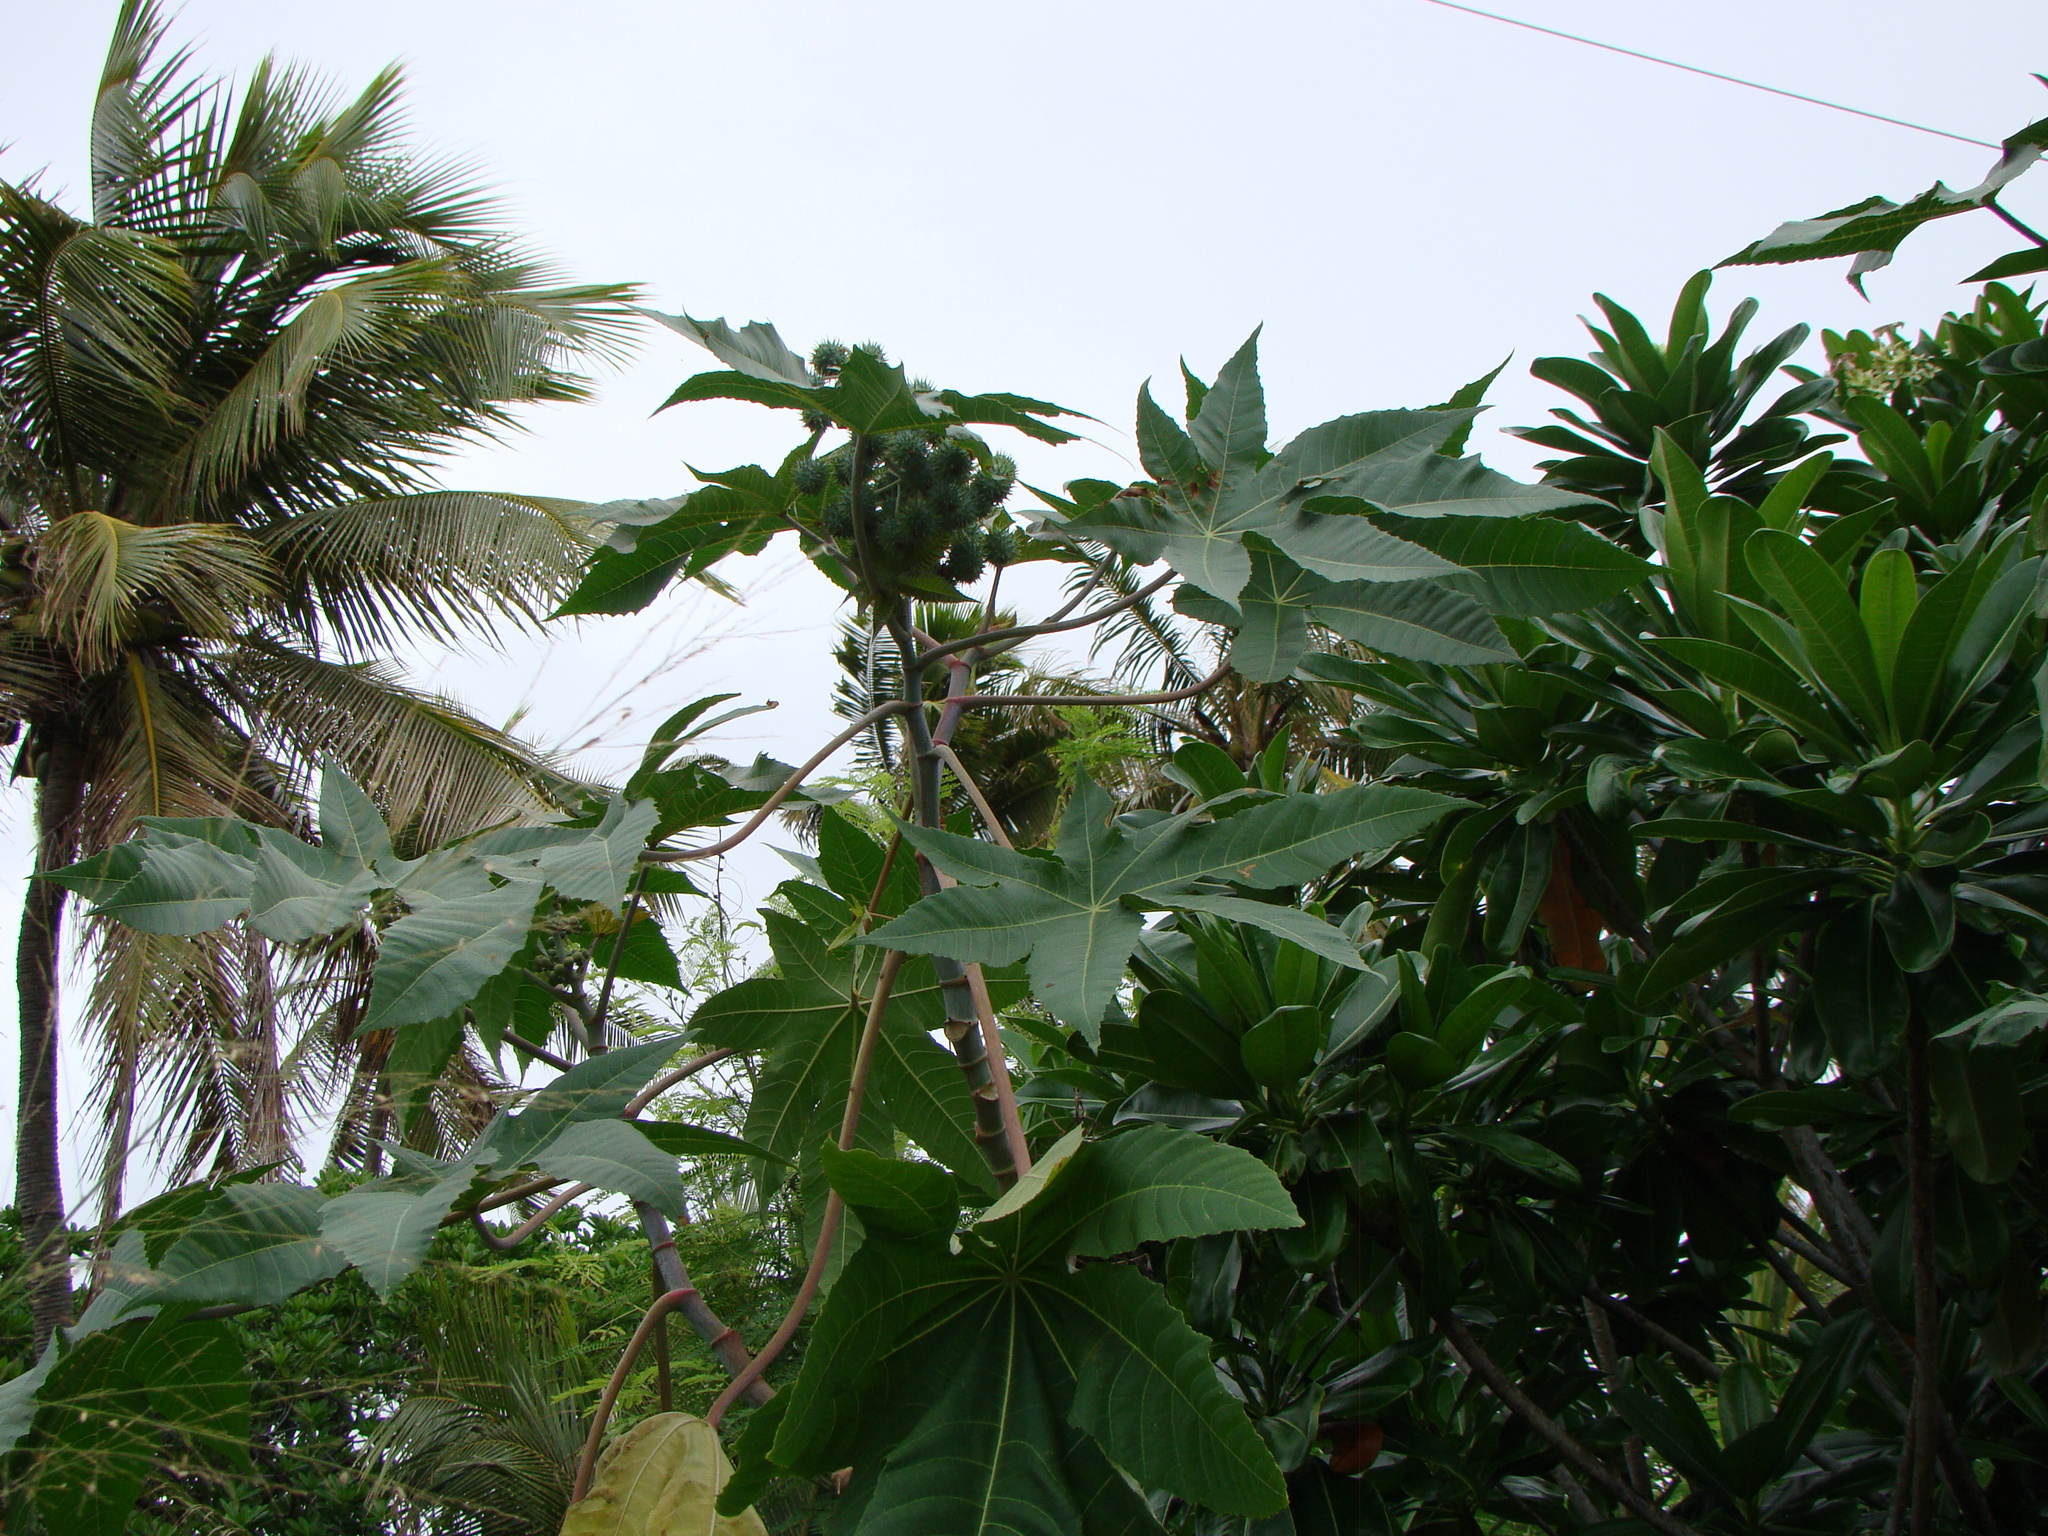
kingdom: Plantae
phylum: Tracheophyta
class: Magnoliopsida
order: Malpighiales
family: Euphorbiaceae
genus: Ricinus
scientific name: Ricinus communis
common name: Castor-oil-plant
